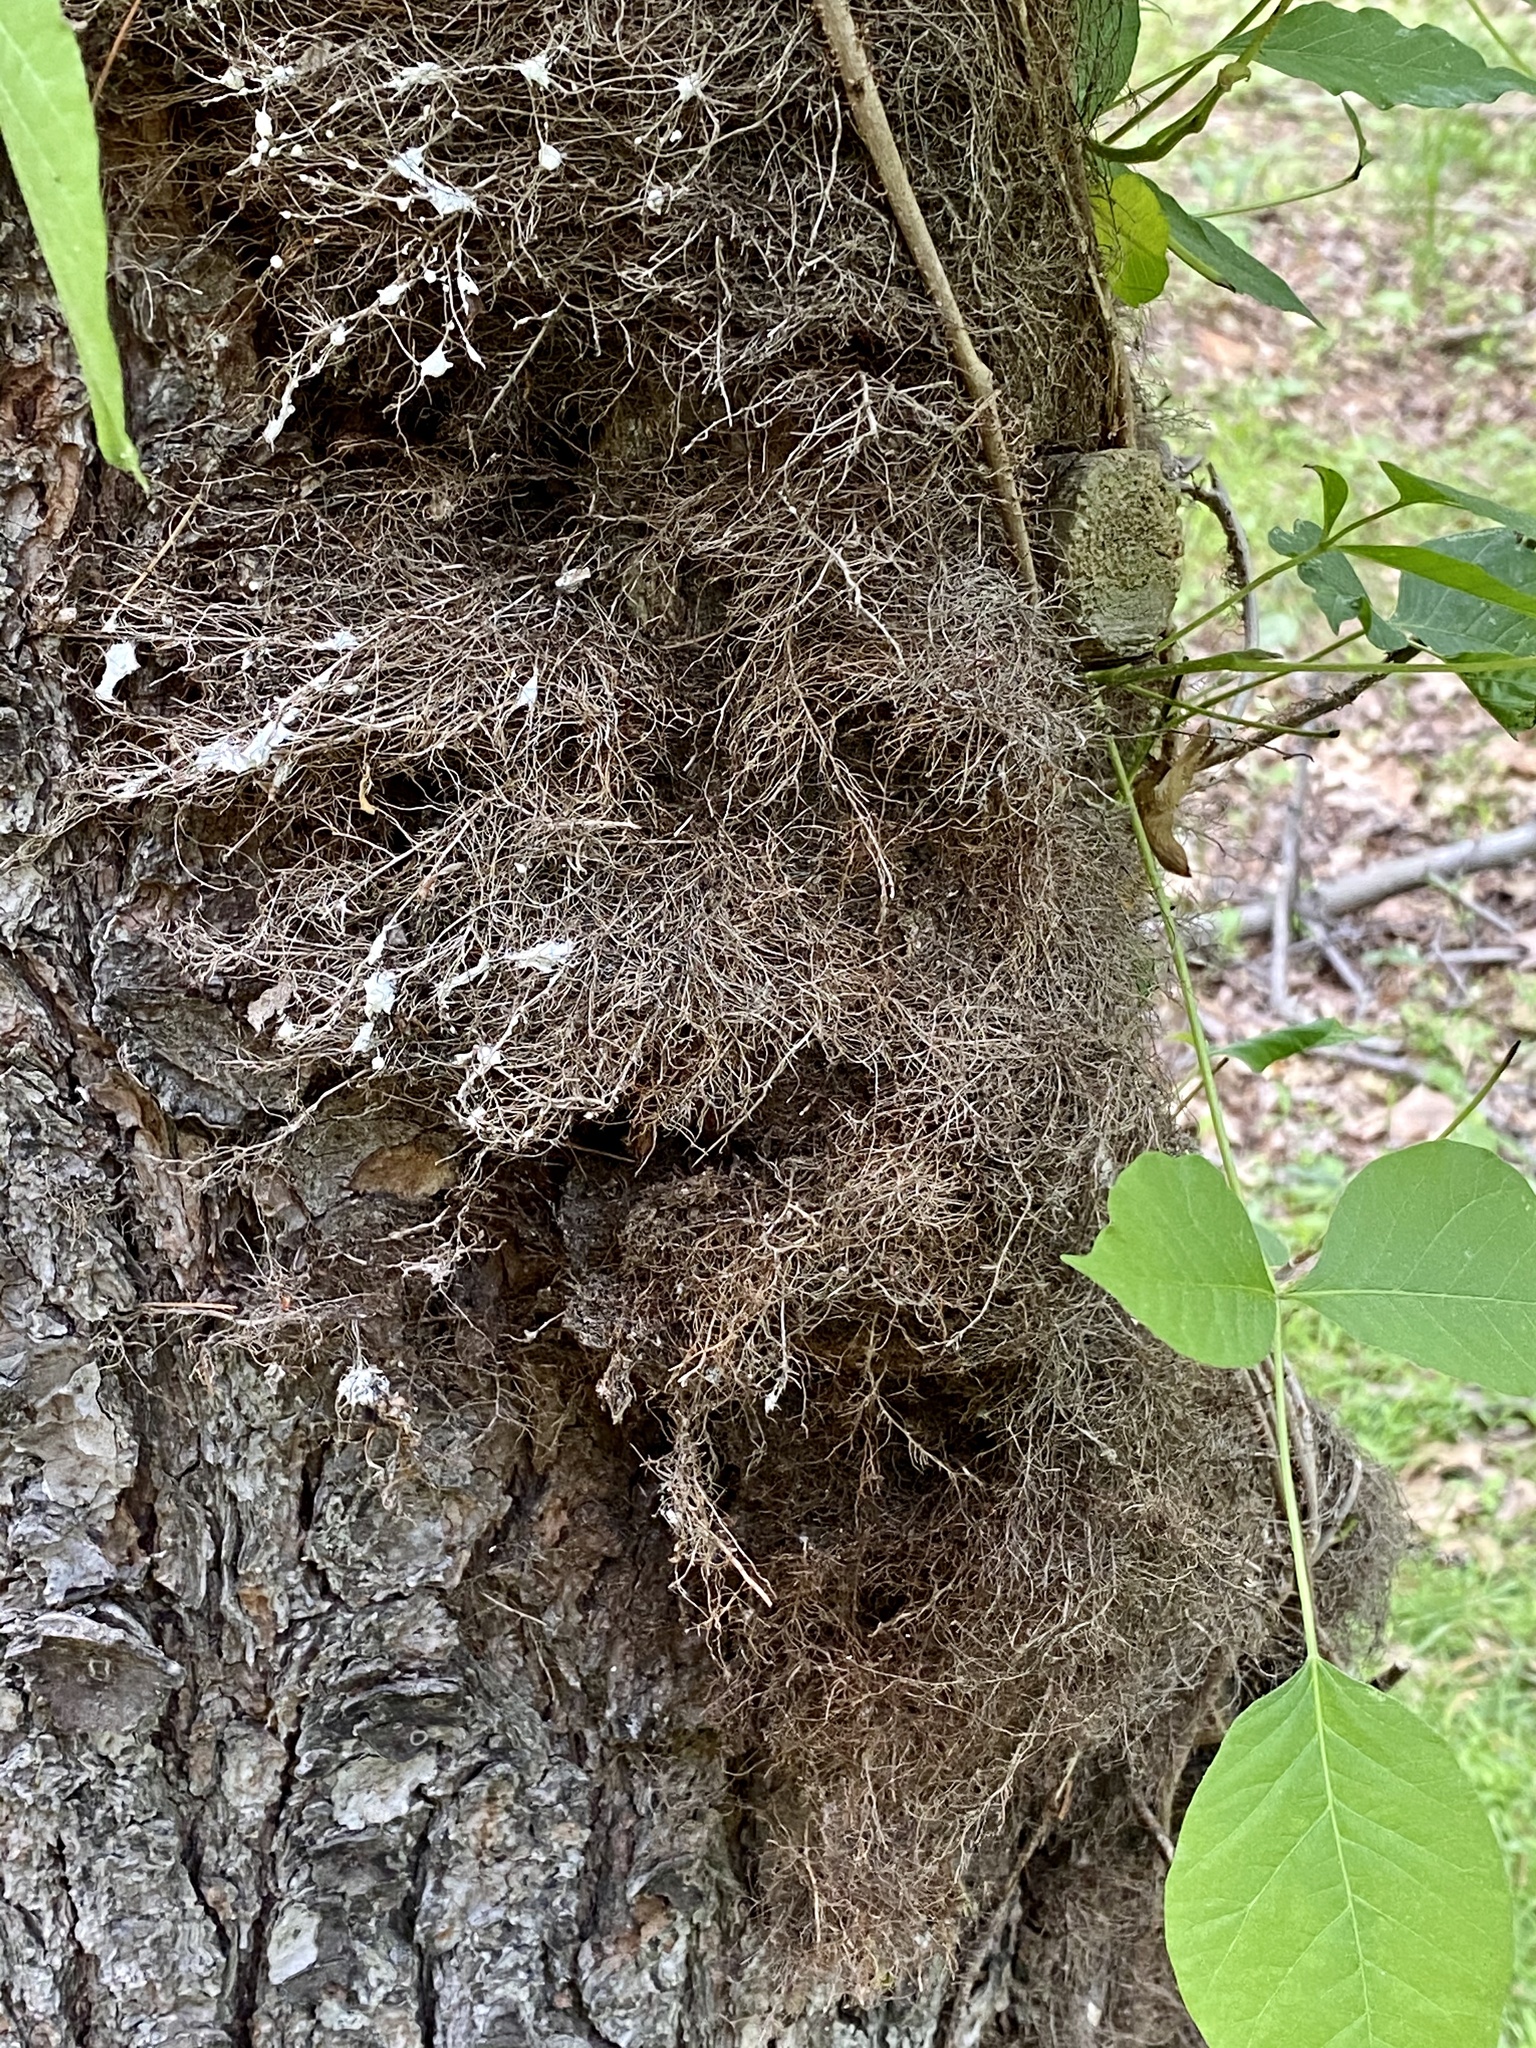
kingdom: Plantae
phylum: Tracheophyta
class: Magnoliopsida
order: Sapindales
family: Anacardiaceae
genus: Toxicodendron
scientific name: Toxicodendron radicans
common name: Poison ivy
